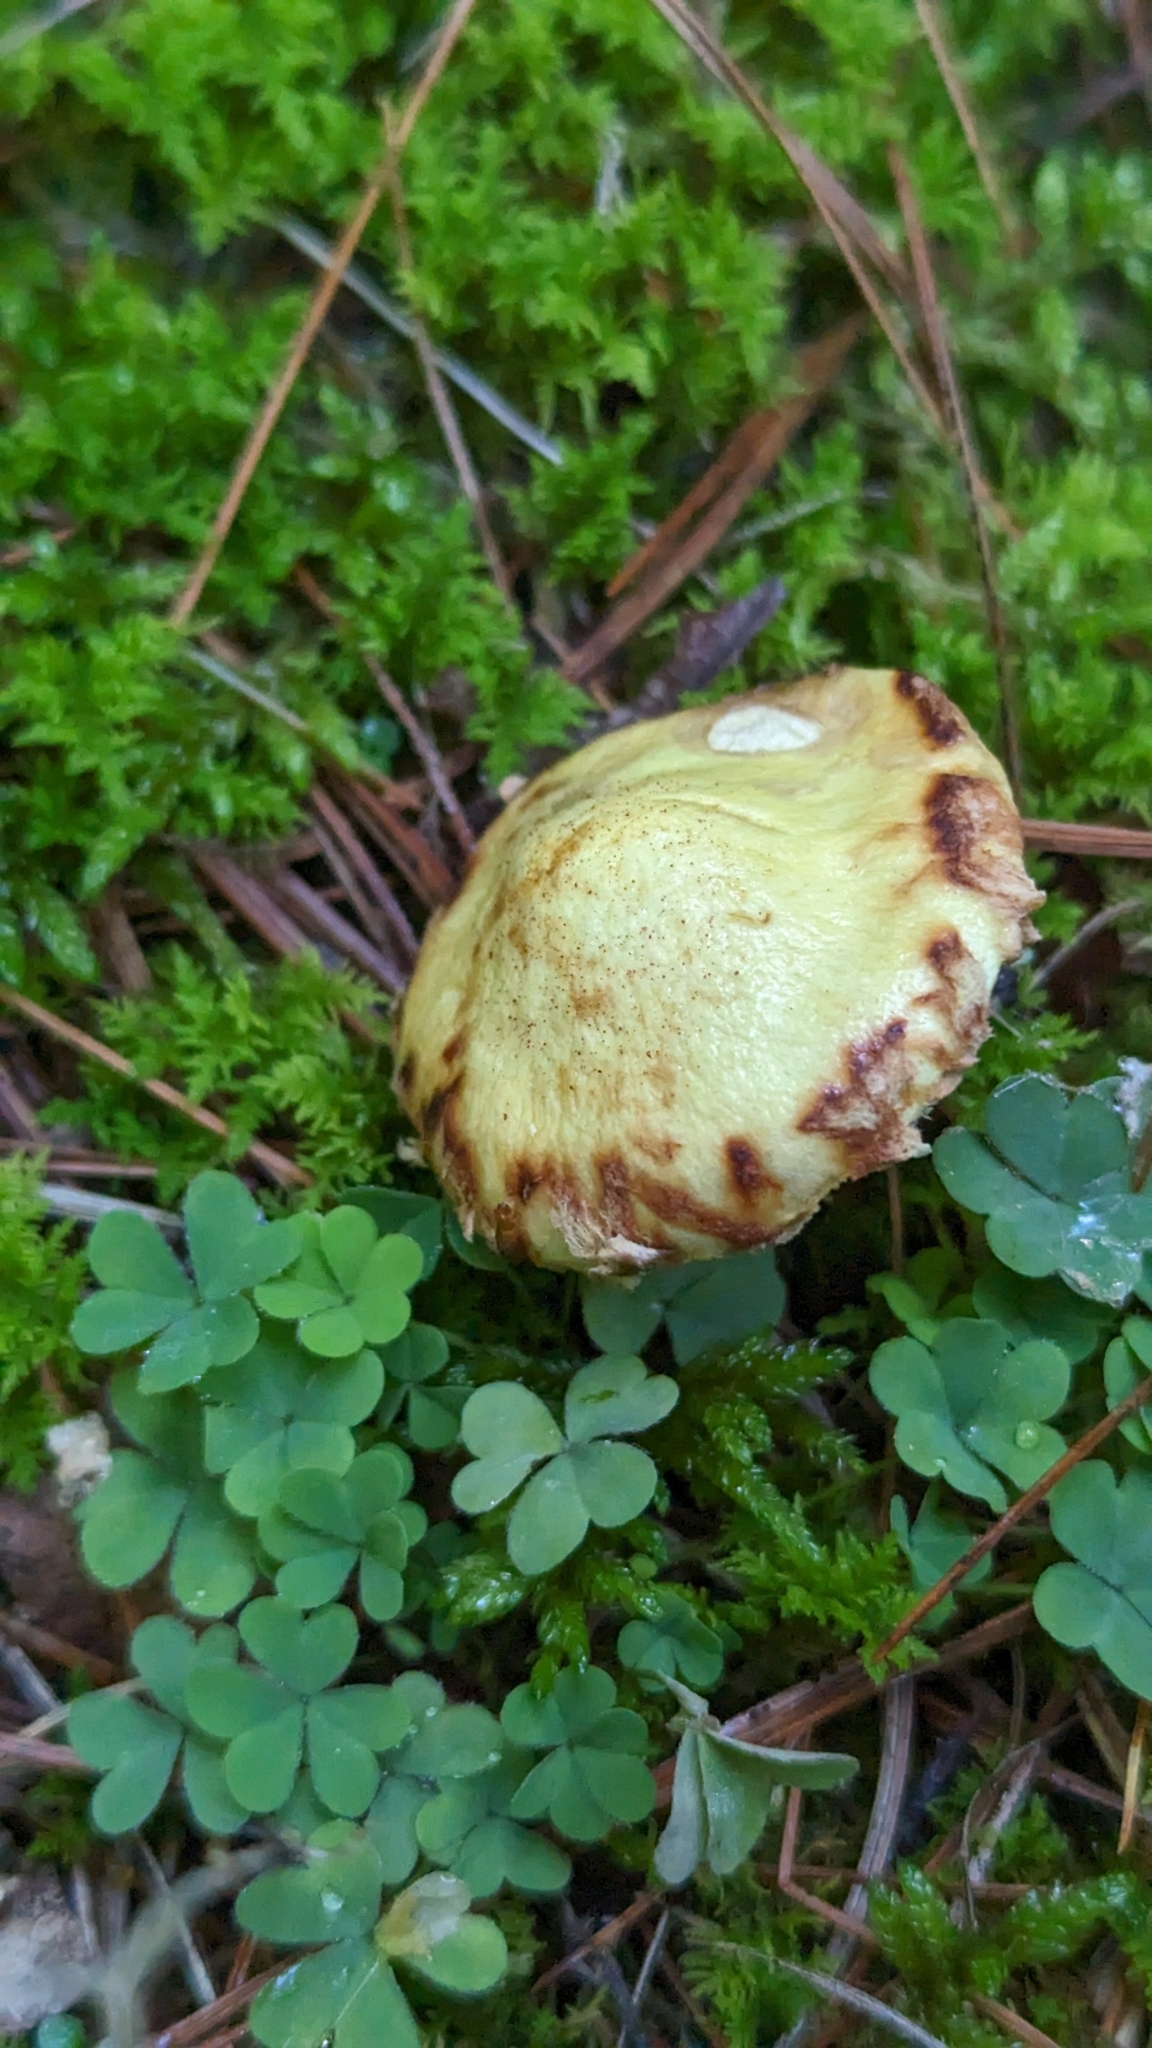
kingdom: Fungi
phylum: Basidiomycota
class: Agaricomycetes
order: Boletales
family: Suillaceae
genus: Suillus
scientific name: Suillus americanus
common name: Chicken fat mushroom
